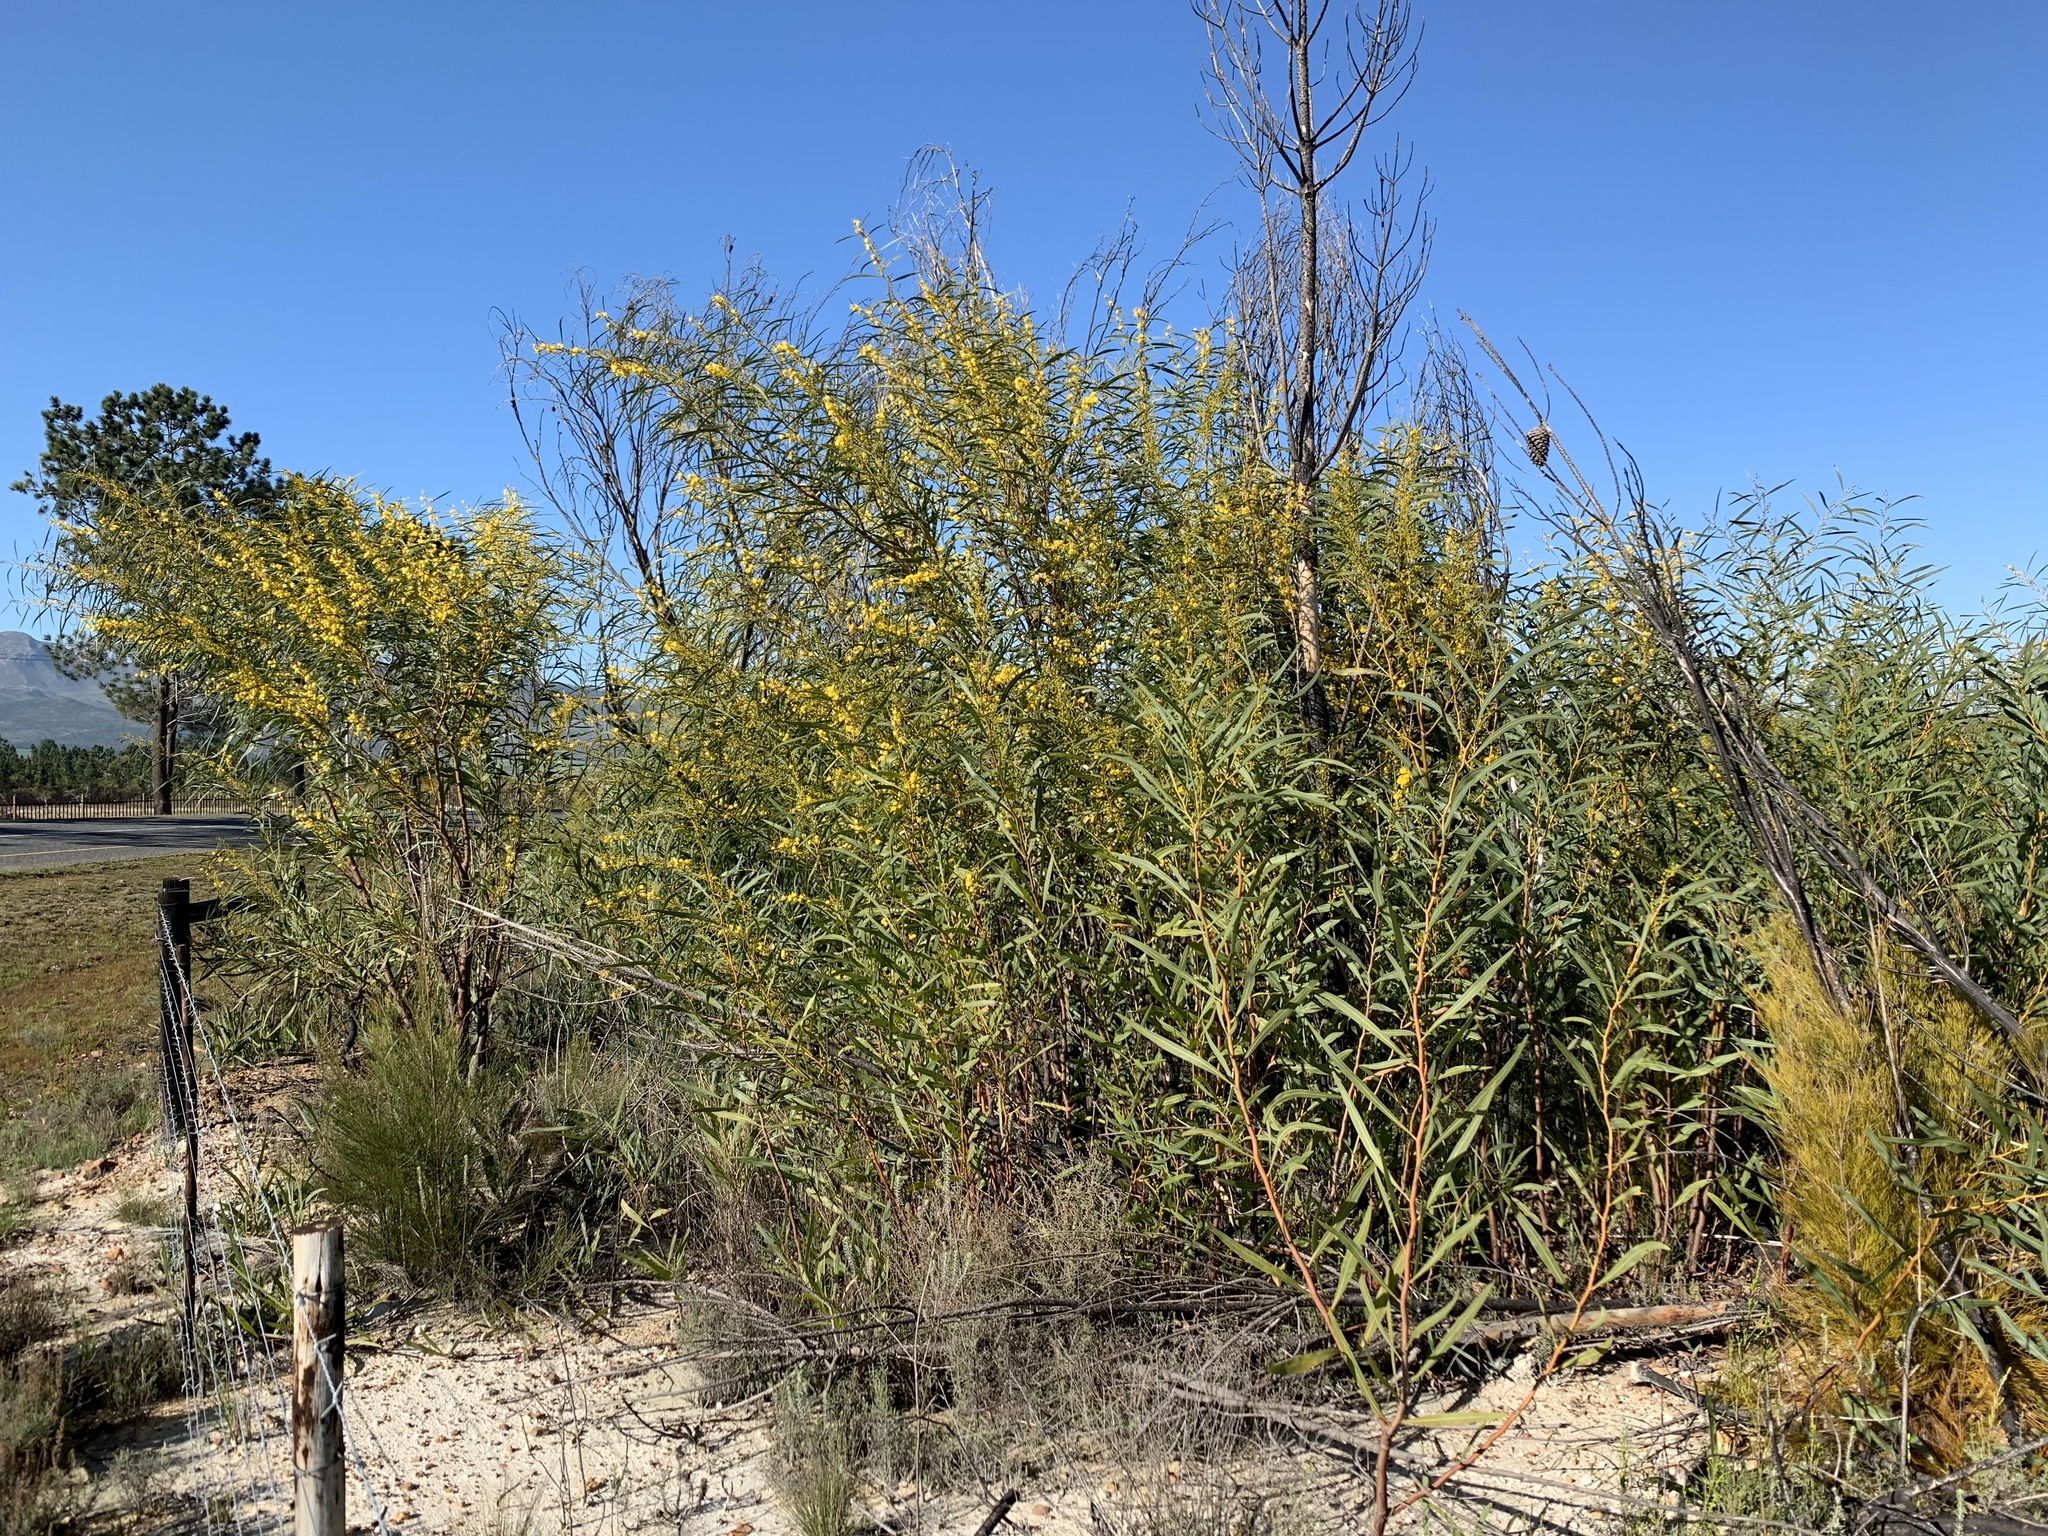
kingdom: Plantae
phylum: Tracheophyta
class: Magnoliopsida
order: Fabales
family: Fabaceae
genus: Acacia
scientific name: Acacia saligna
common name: Orange wattle
